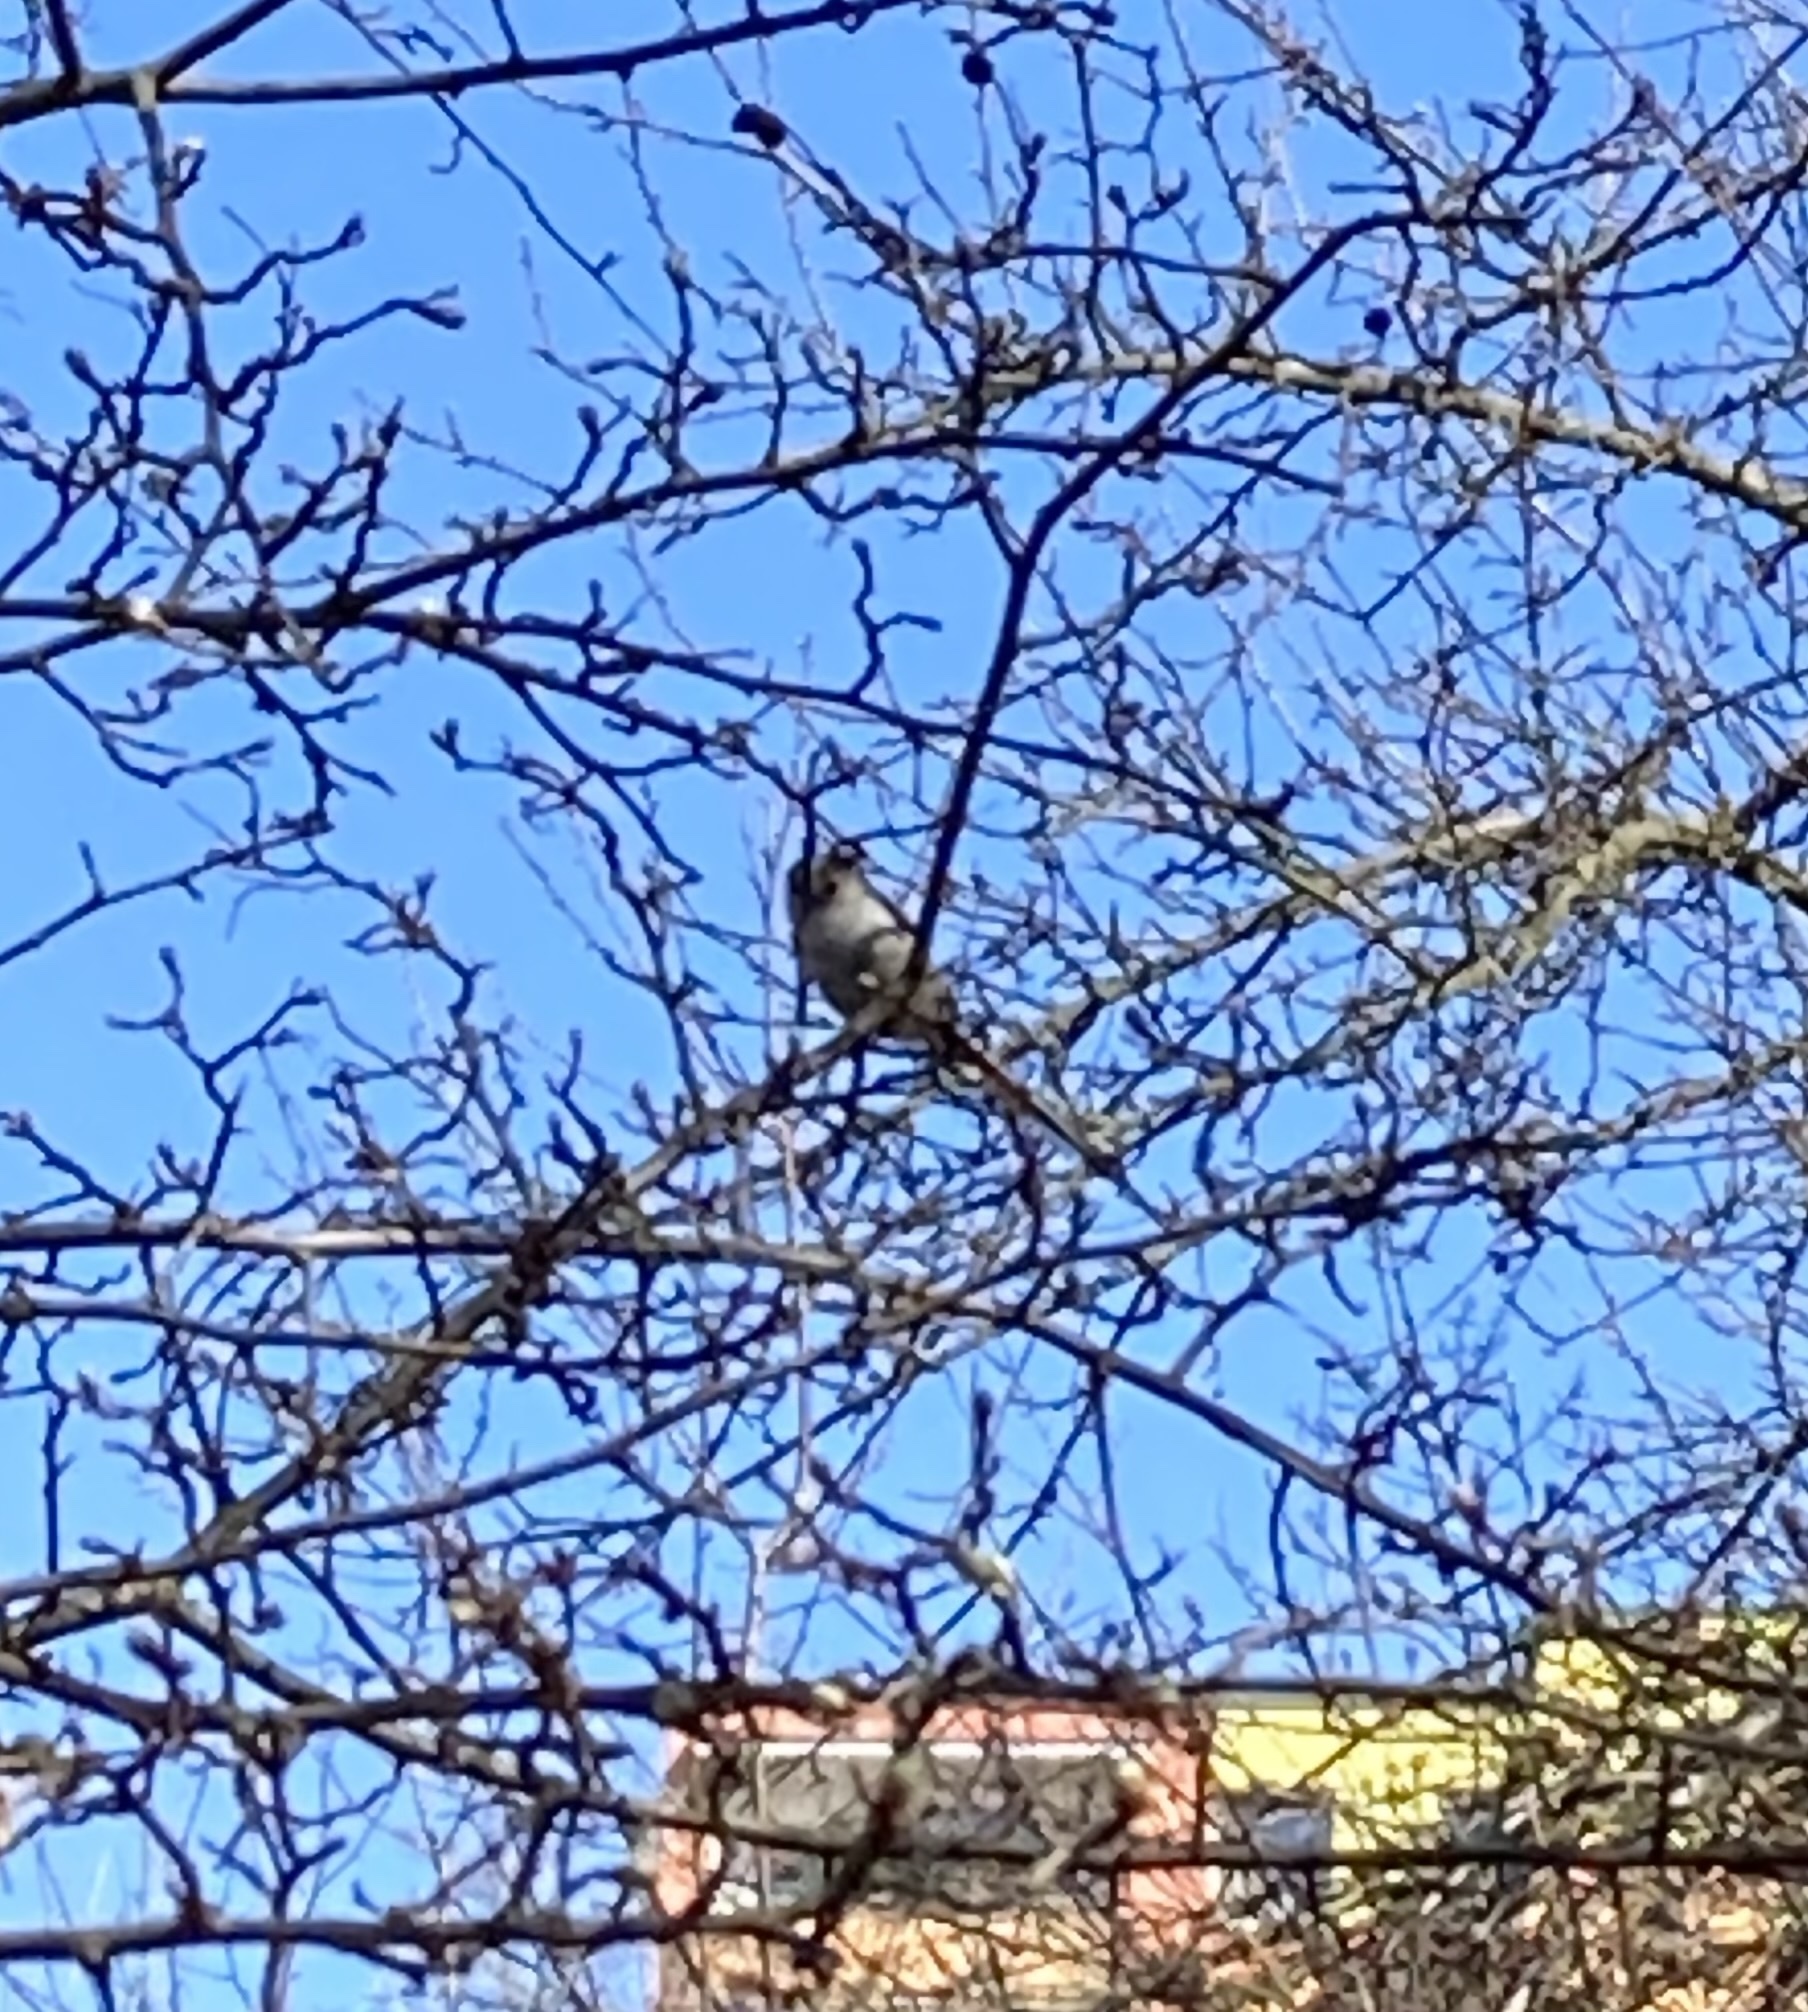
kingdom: Animalia
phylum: Chordata
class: Aves
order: Passeriformes
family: Aegithalidae
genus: Aegithalos
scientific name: Aegithalos caudatus
